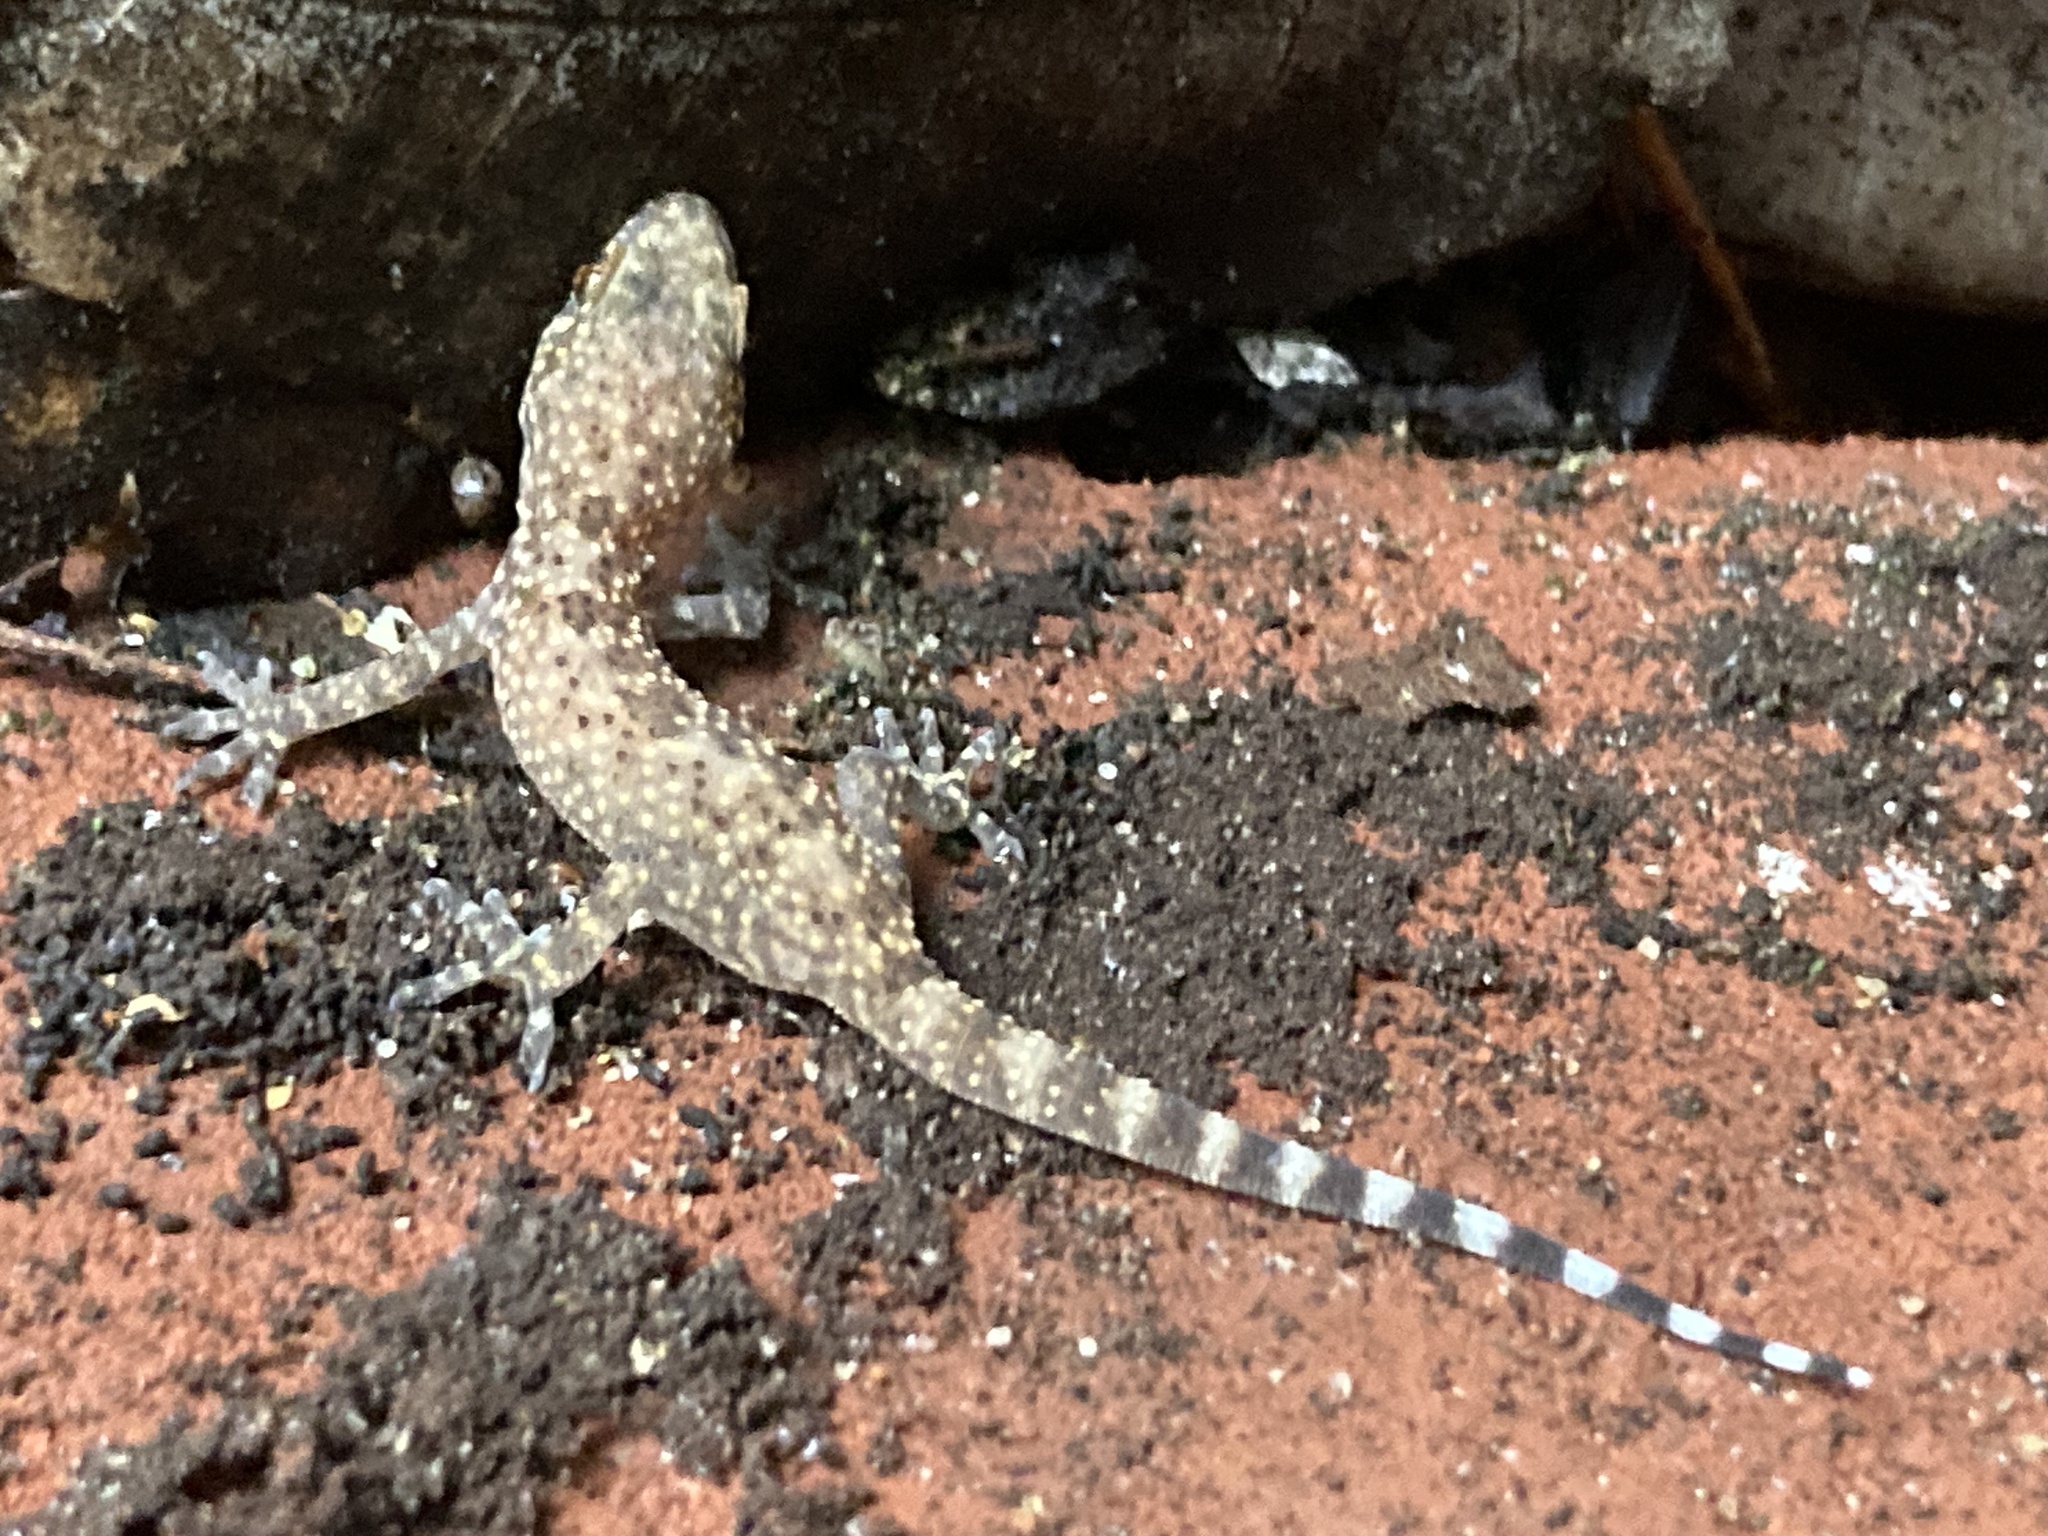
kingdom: Animalia
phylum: Chordata
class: Squamata
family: Gekkonidae
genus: Hemidactylus
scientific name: Hemidactylus turcicus
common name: Turkish gecko
